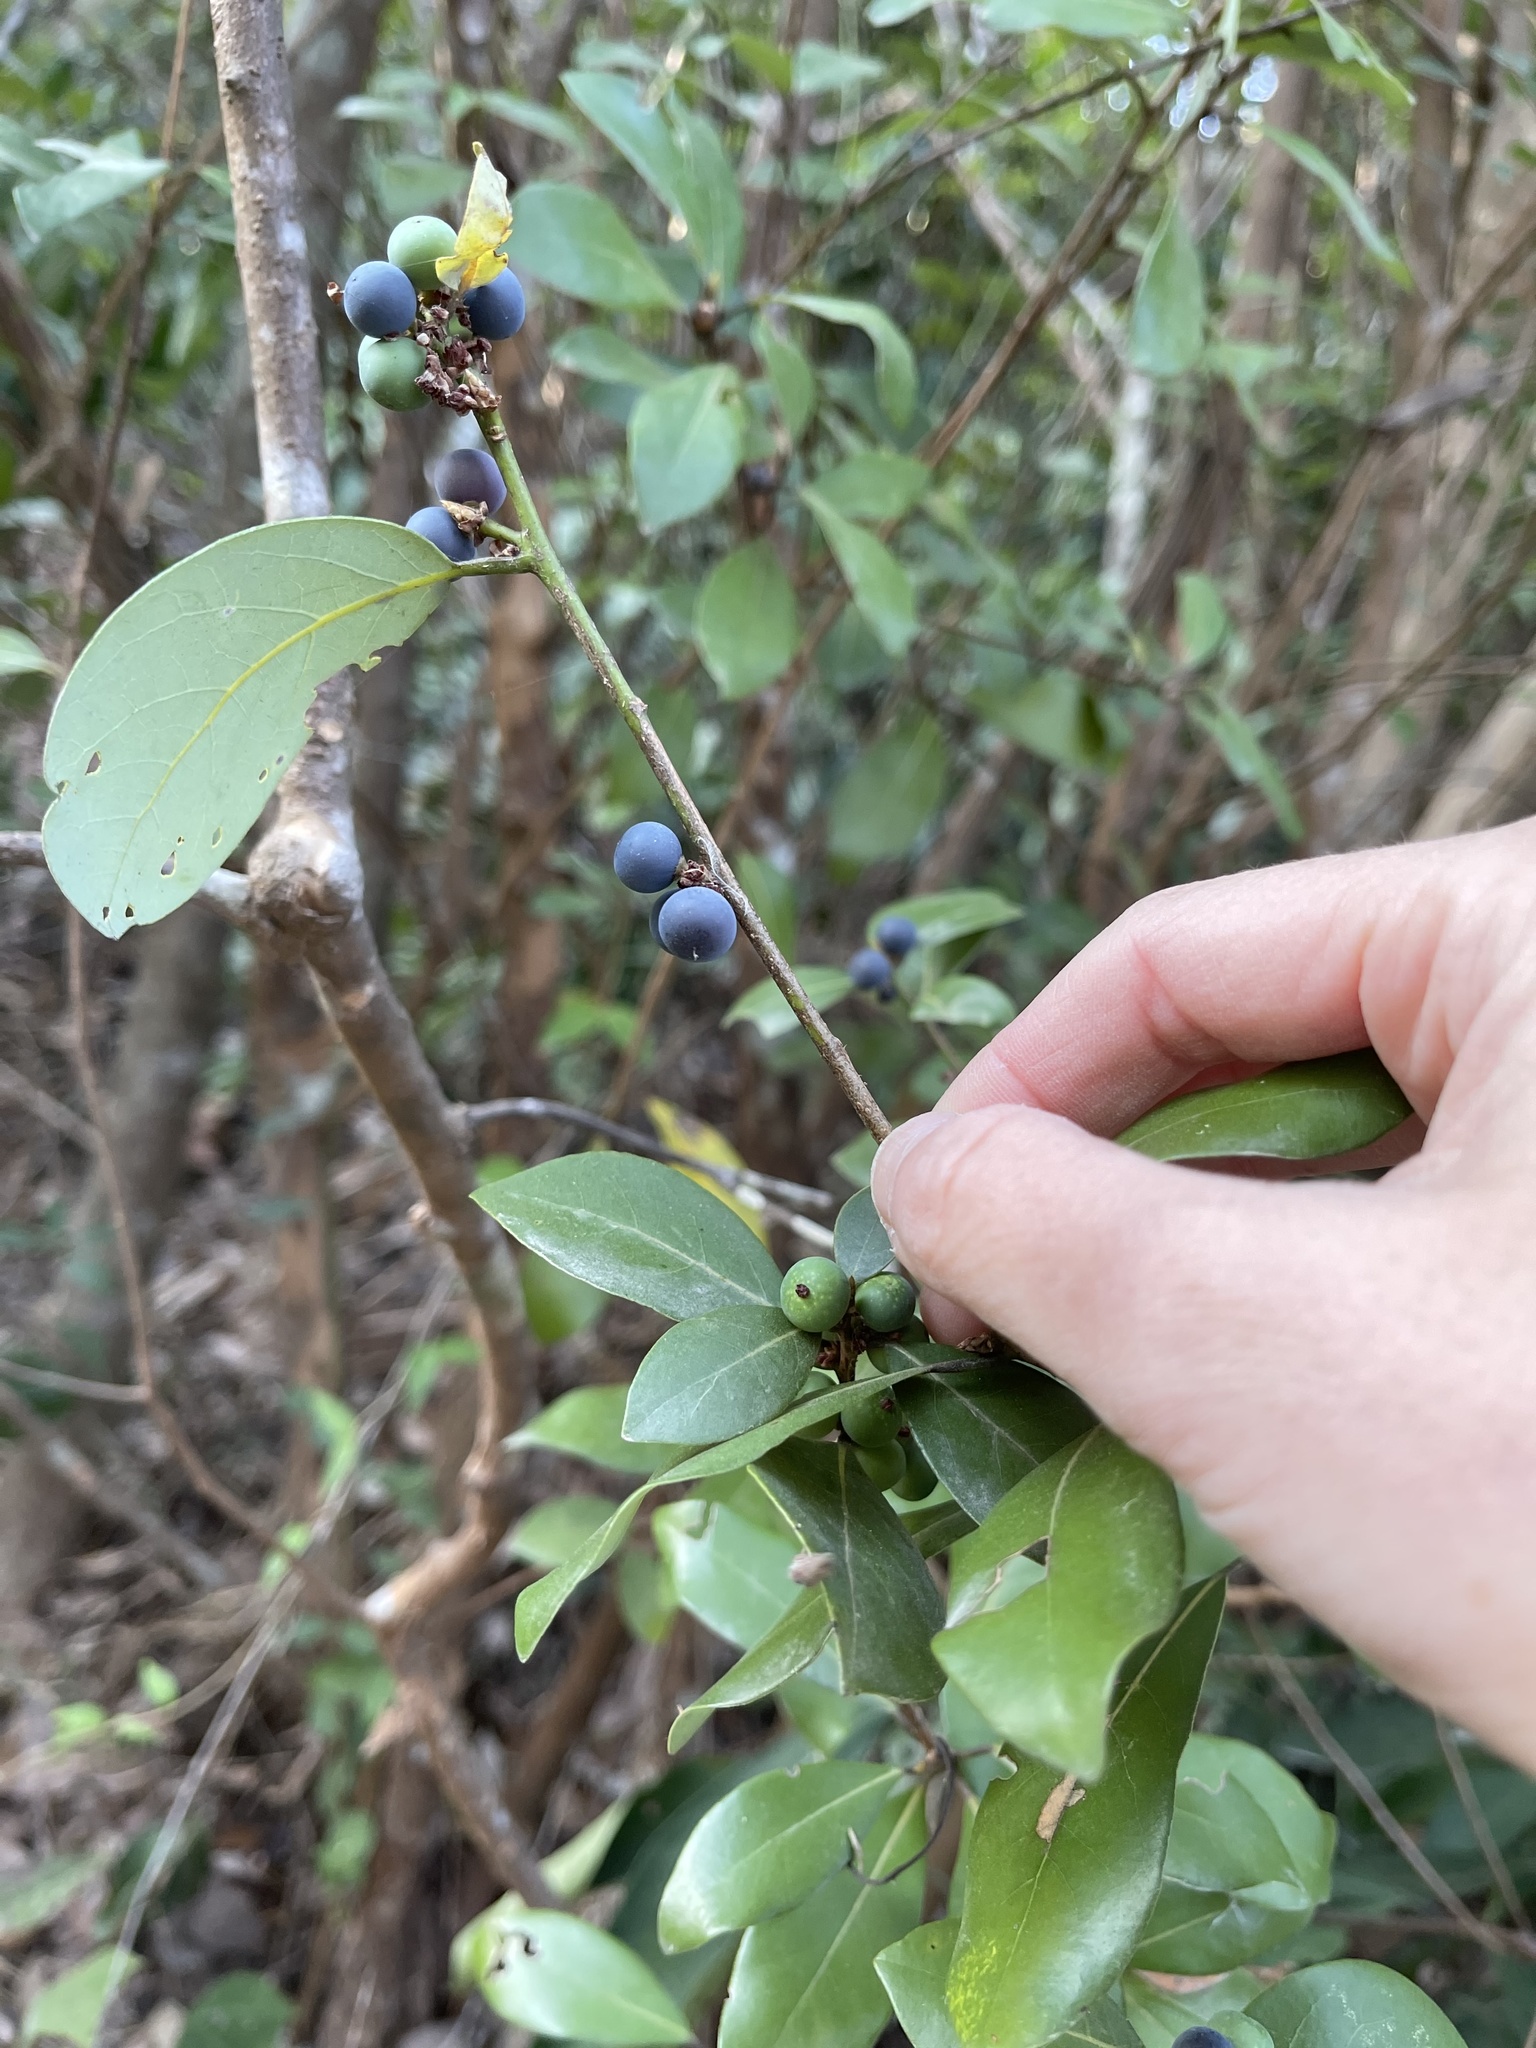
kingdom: Plantae
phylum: Tracheophyta
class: Magnoliopsida
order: Laurales
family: Lauraceae
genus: Litsea
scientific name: Litsea rotundifolia
